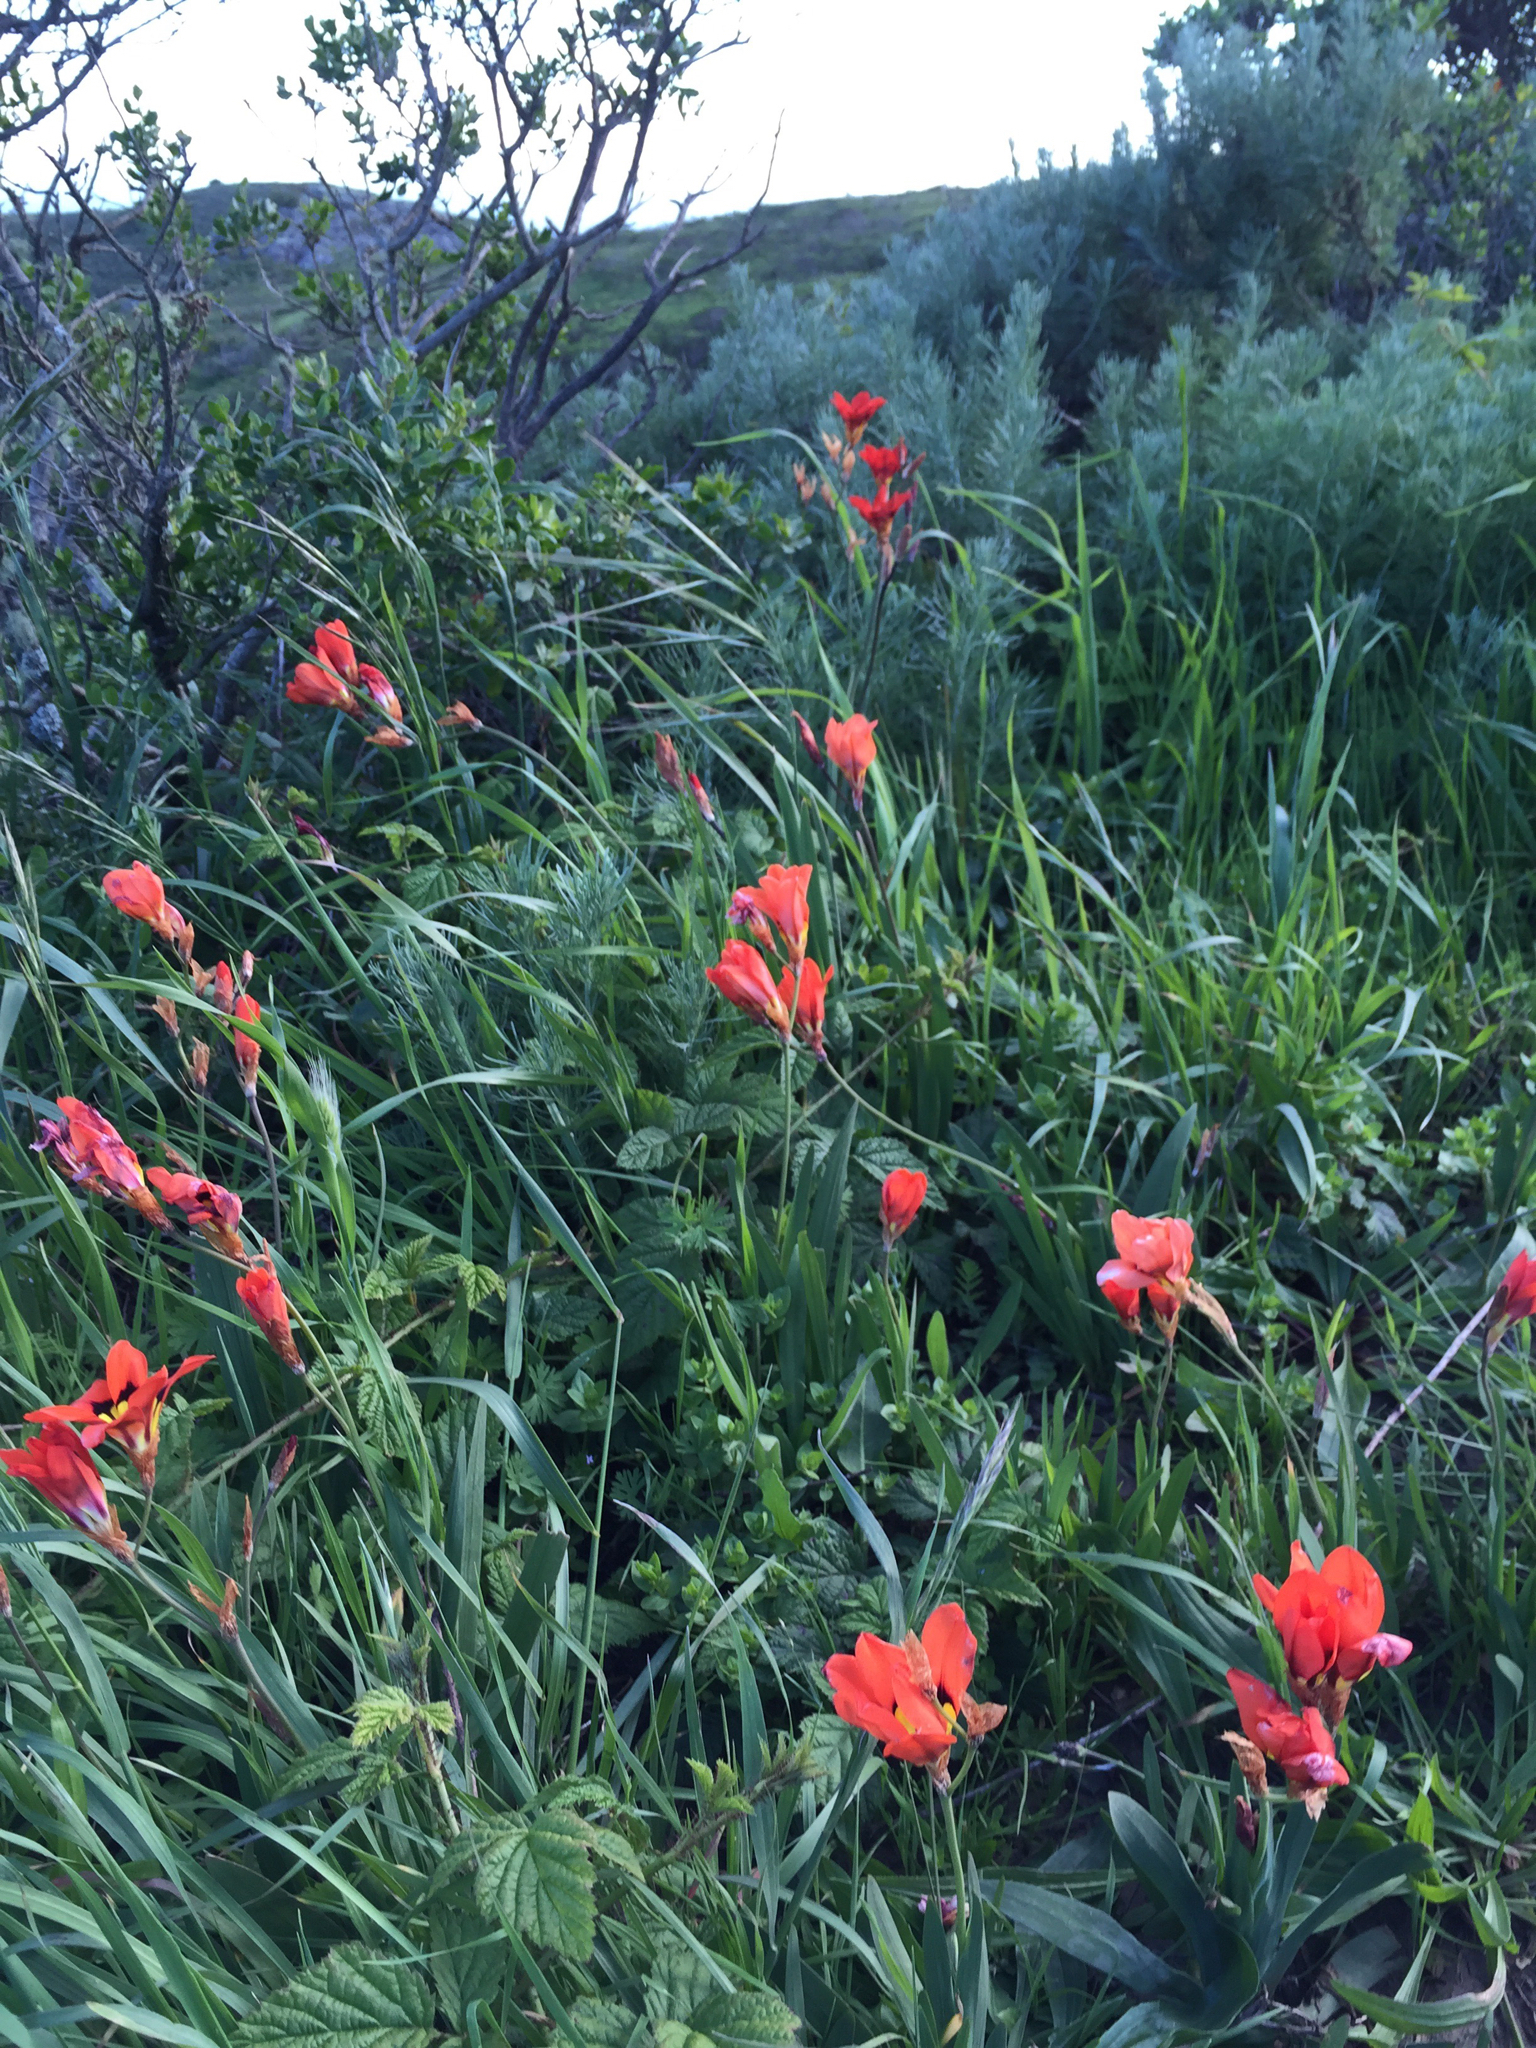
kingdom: Plantae
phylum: Tracheophyta
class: Liliopsida
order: Asparagales
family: Iridaceae
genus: Sparaxis
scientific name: Sparaxis tricolor
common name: Wandflower
